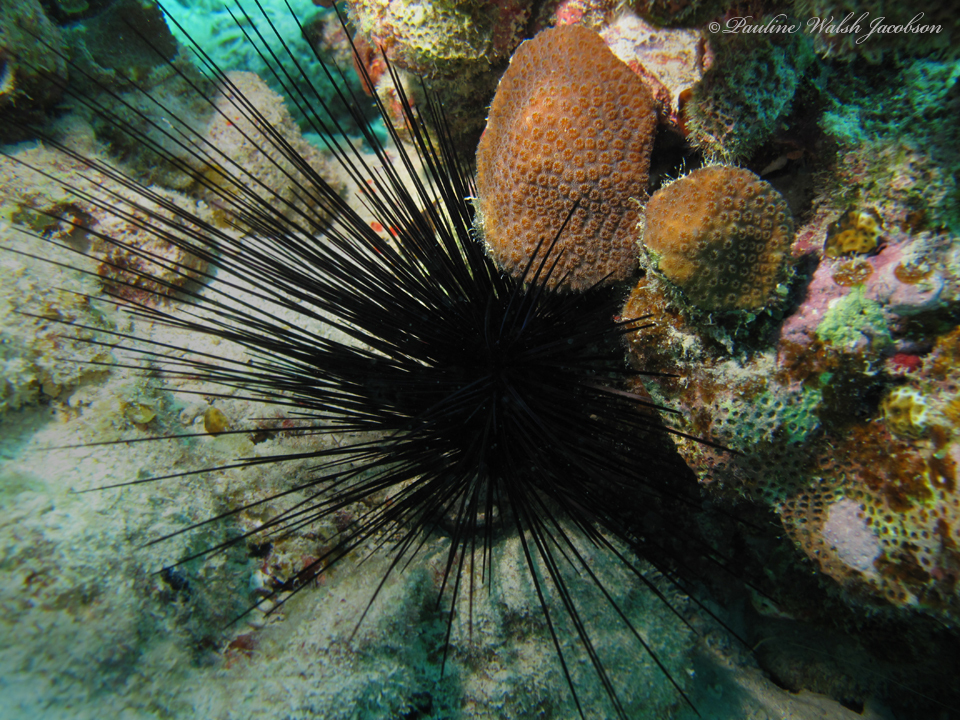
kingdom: Animalia
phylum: Echinodermata
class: Echinoidea
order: Diadematoida
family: Diadematidae
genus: Diadema
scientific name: Diadema antillarum
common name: Spiny urchin
